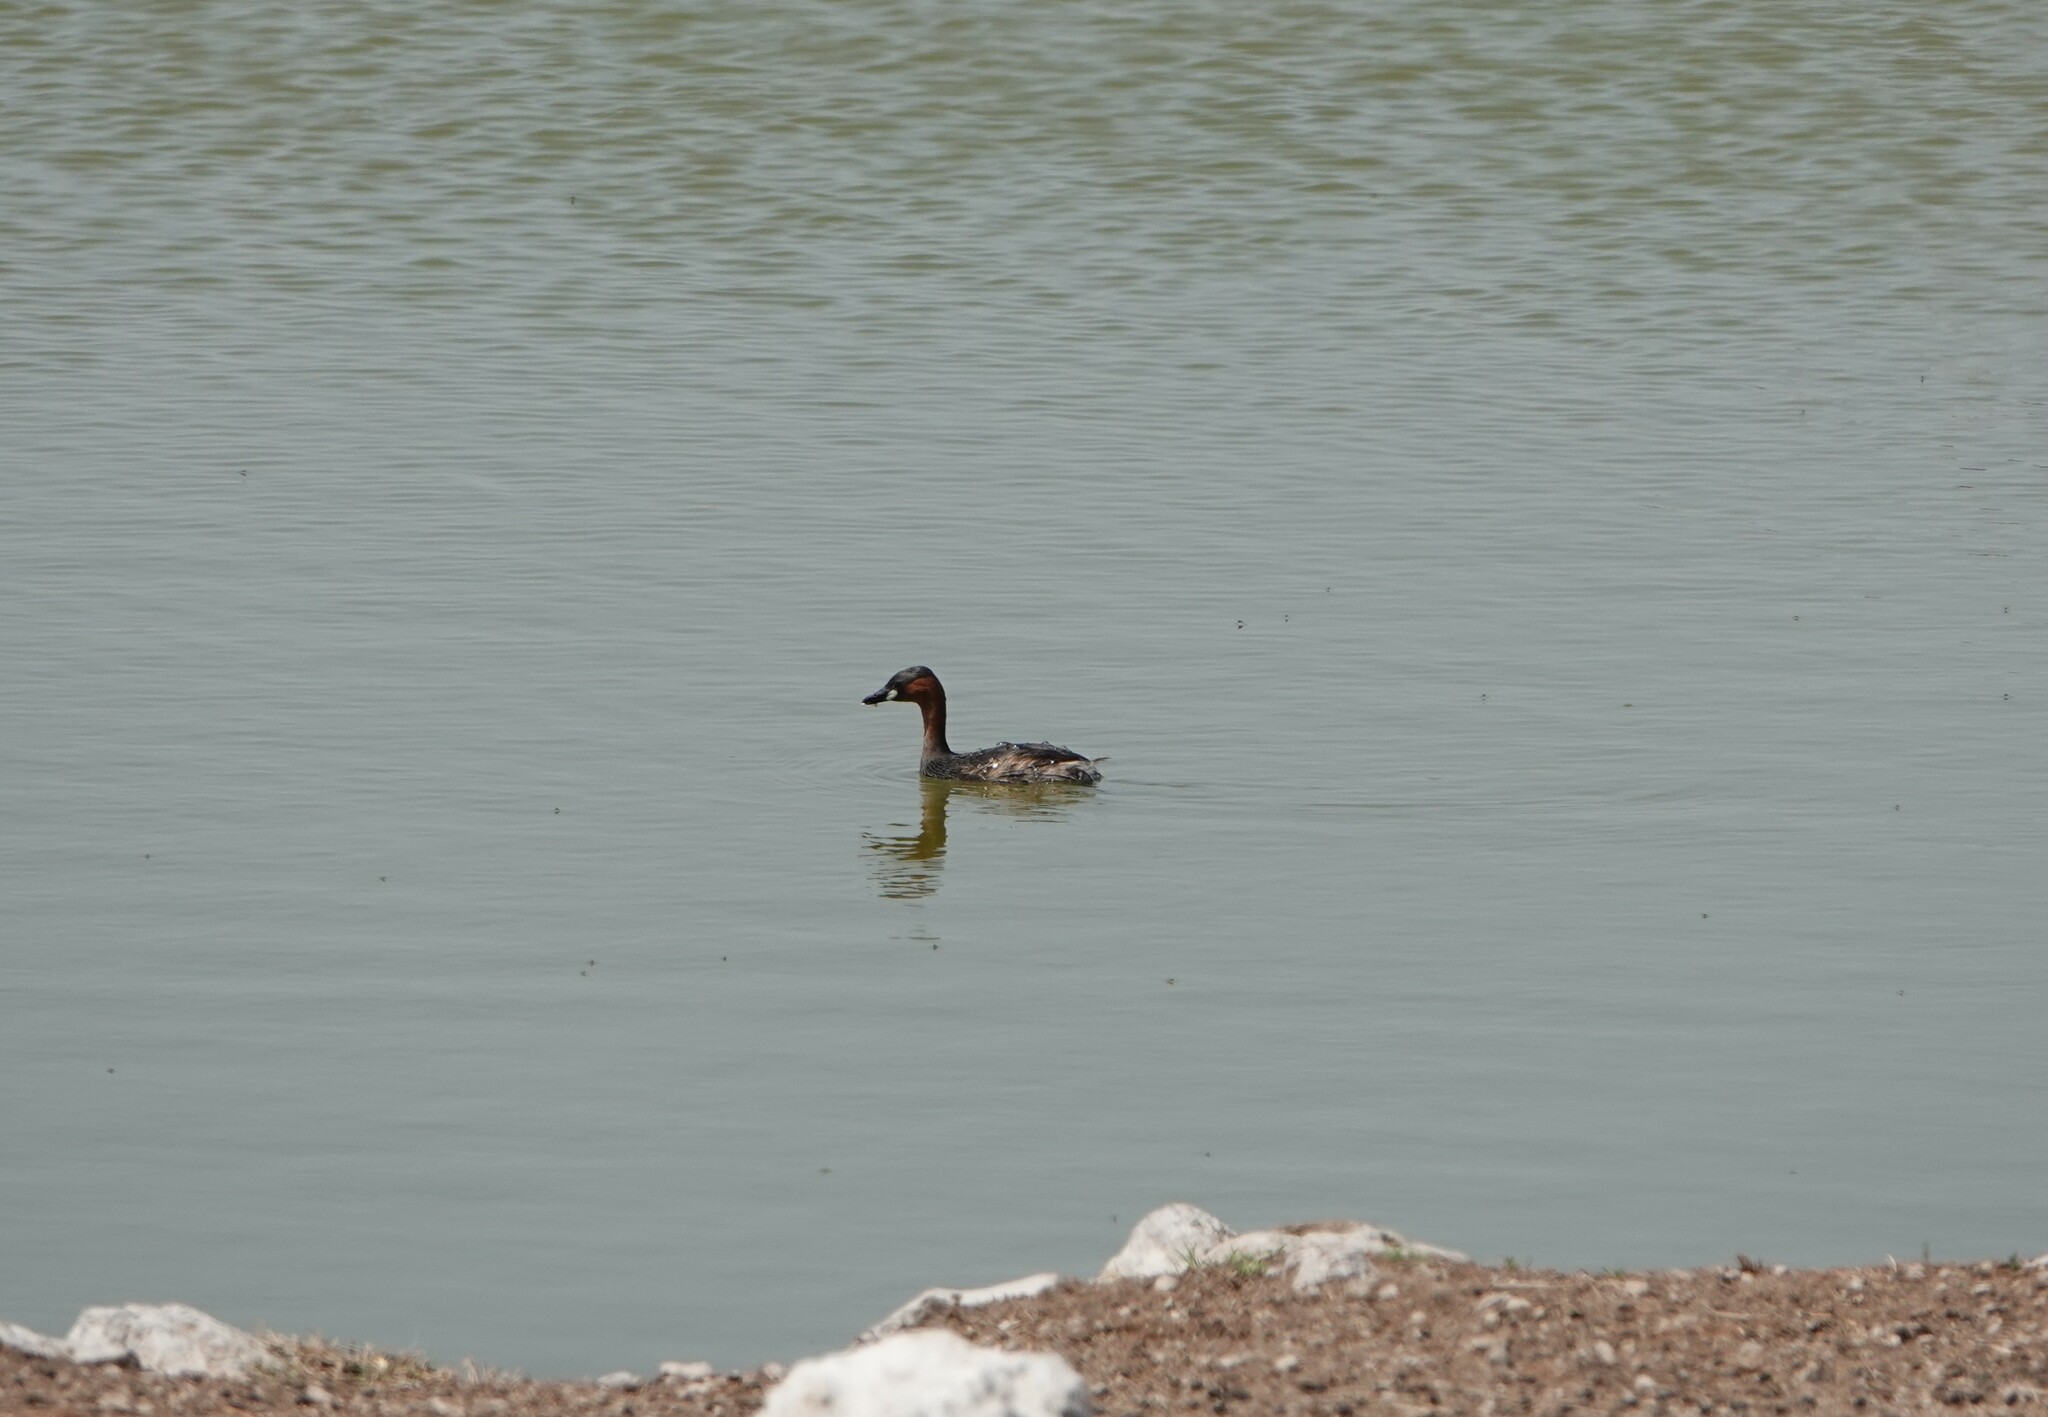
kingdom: Animalia
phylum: Chordata
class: Aves
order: Podicipediformes
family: Podicipedidae
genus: Tachybaptus
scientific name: Tachybaptus ruficollis
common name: Little grebe
